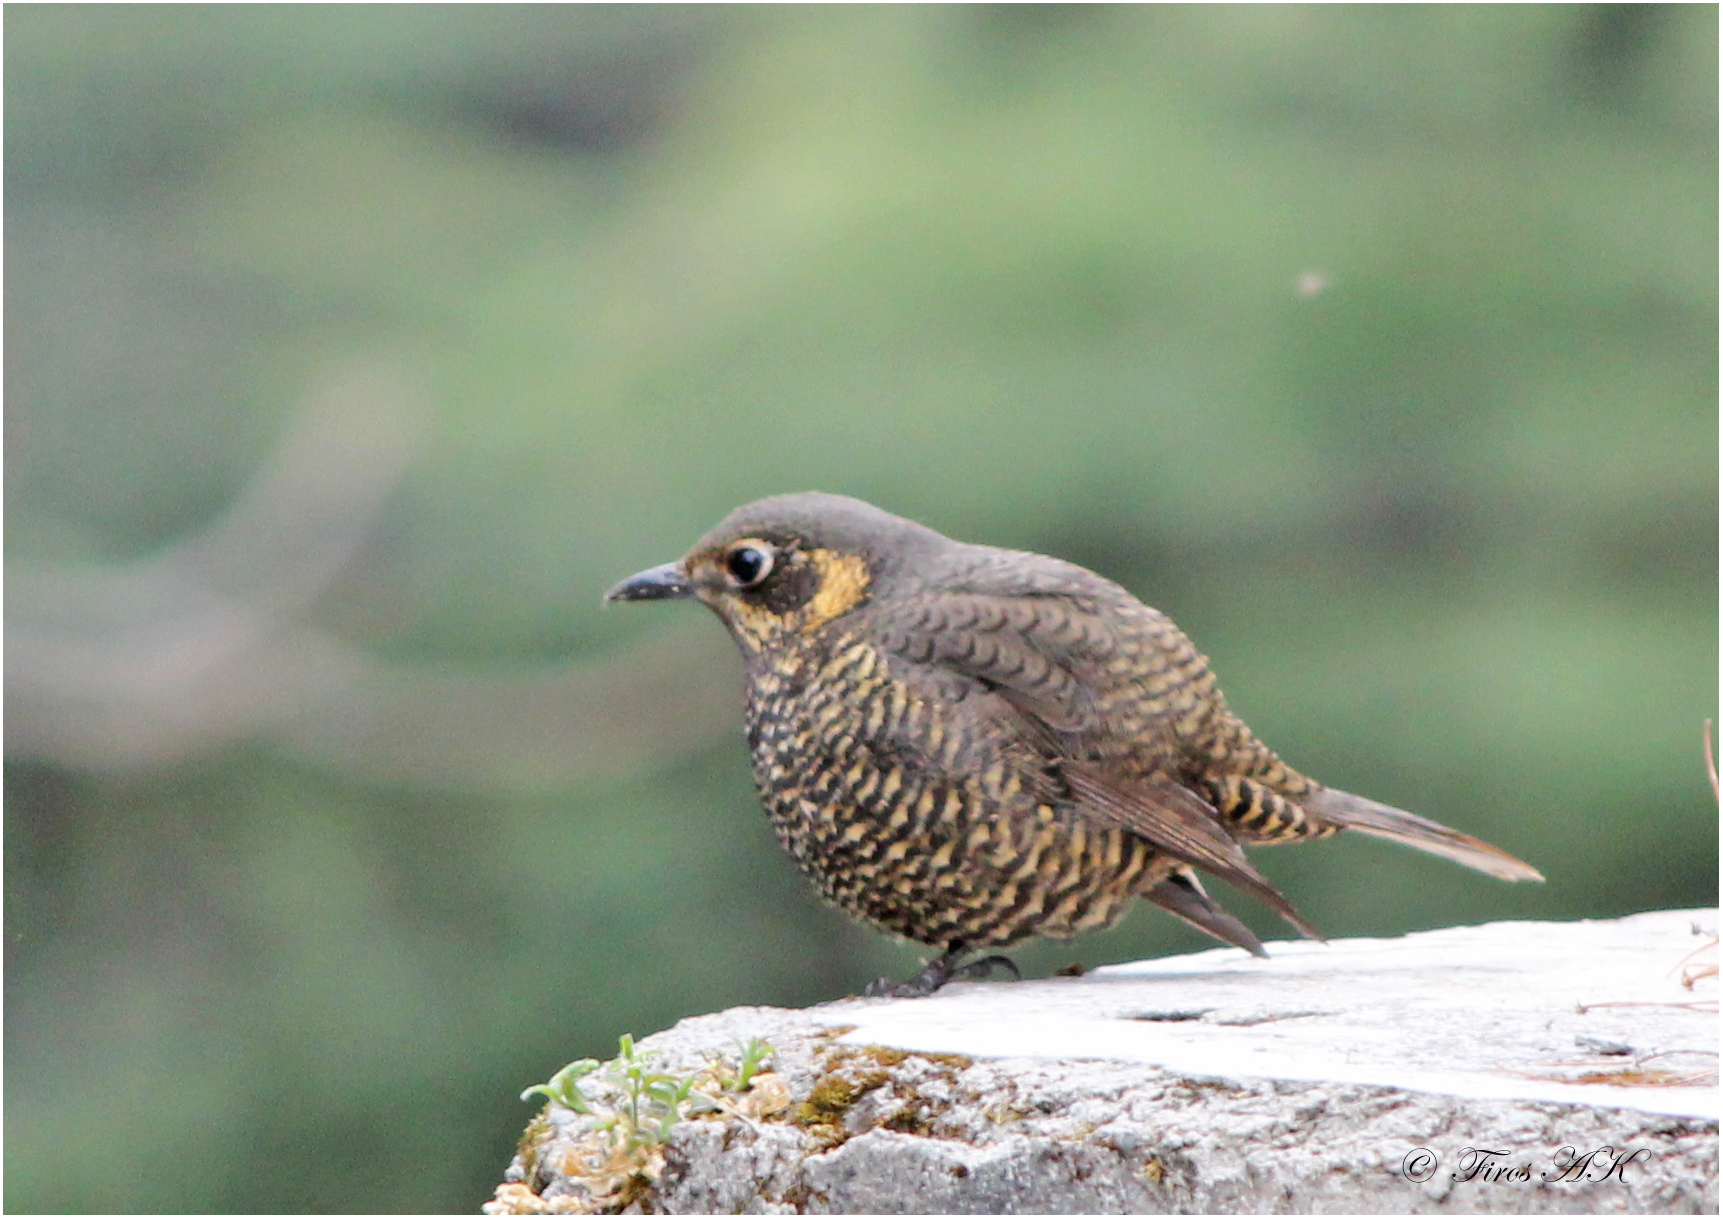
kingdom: Animalia
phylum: Chordata
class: Aves
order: Passeriformes
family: Muscicapidae
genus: Monticola
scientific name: Monticola rufiventris
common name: Chestnut-bellied rock thrush
